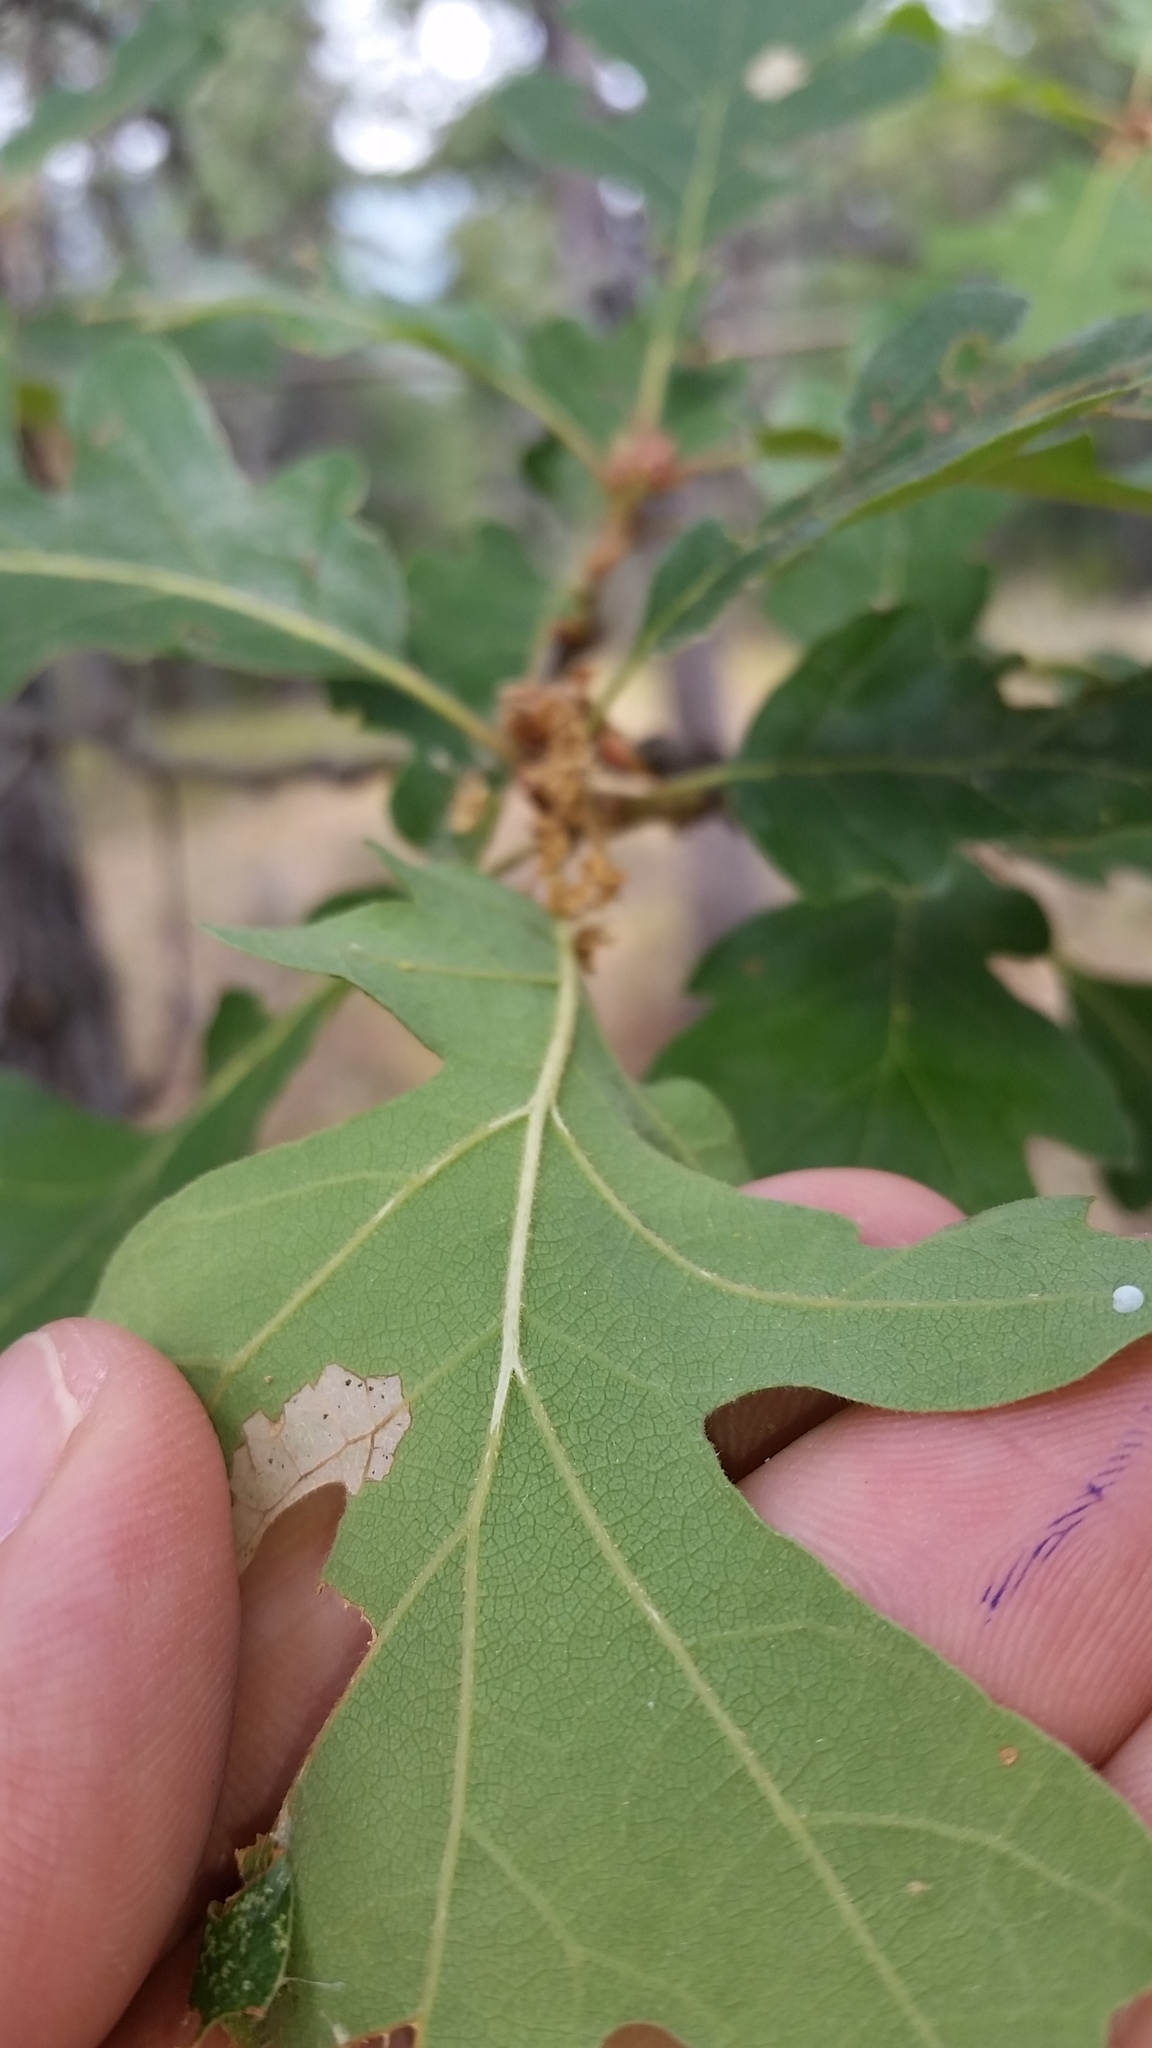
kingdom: Plantae
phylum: Tracheophyta
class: Magnoliopsida
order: Fagales
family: Fagaceae
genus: Quercus
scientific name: Quercus garryana
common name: Garry oak
